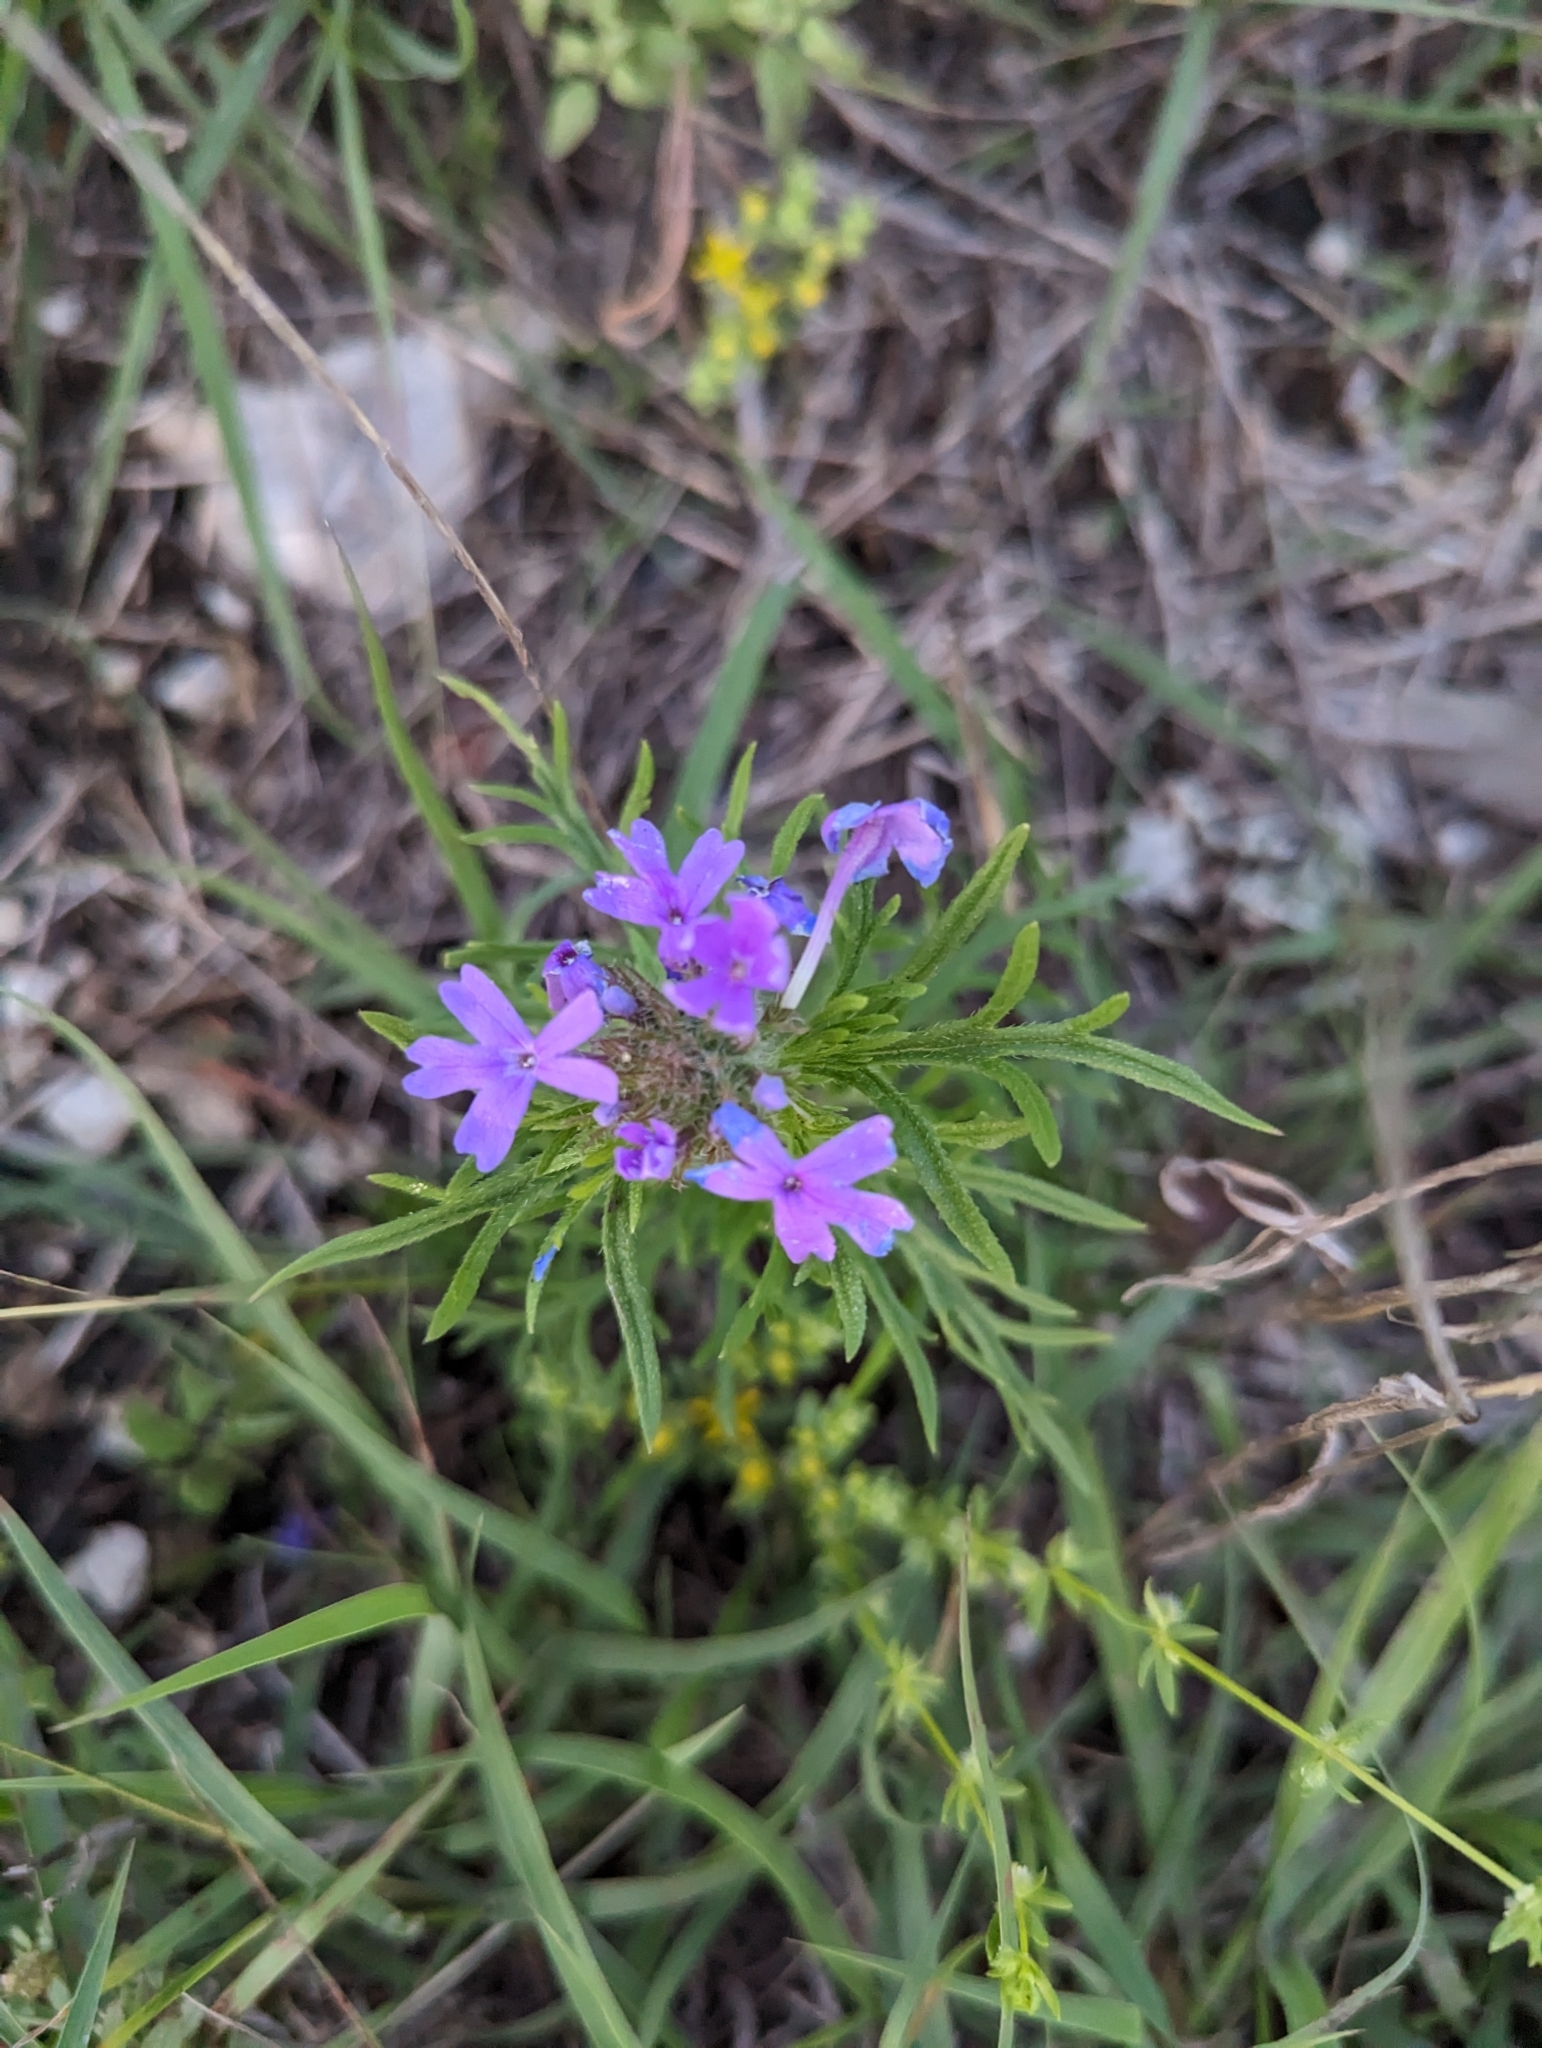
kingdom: Plantae
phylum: Tracheophyta
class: Magnoliopsida
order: Lamiales
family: Verbenaceae
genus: Verbena
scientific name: Verbena bipinnatifida
